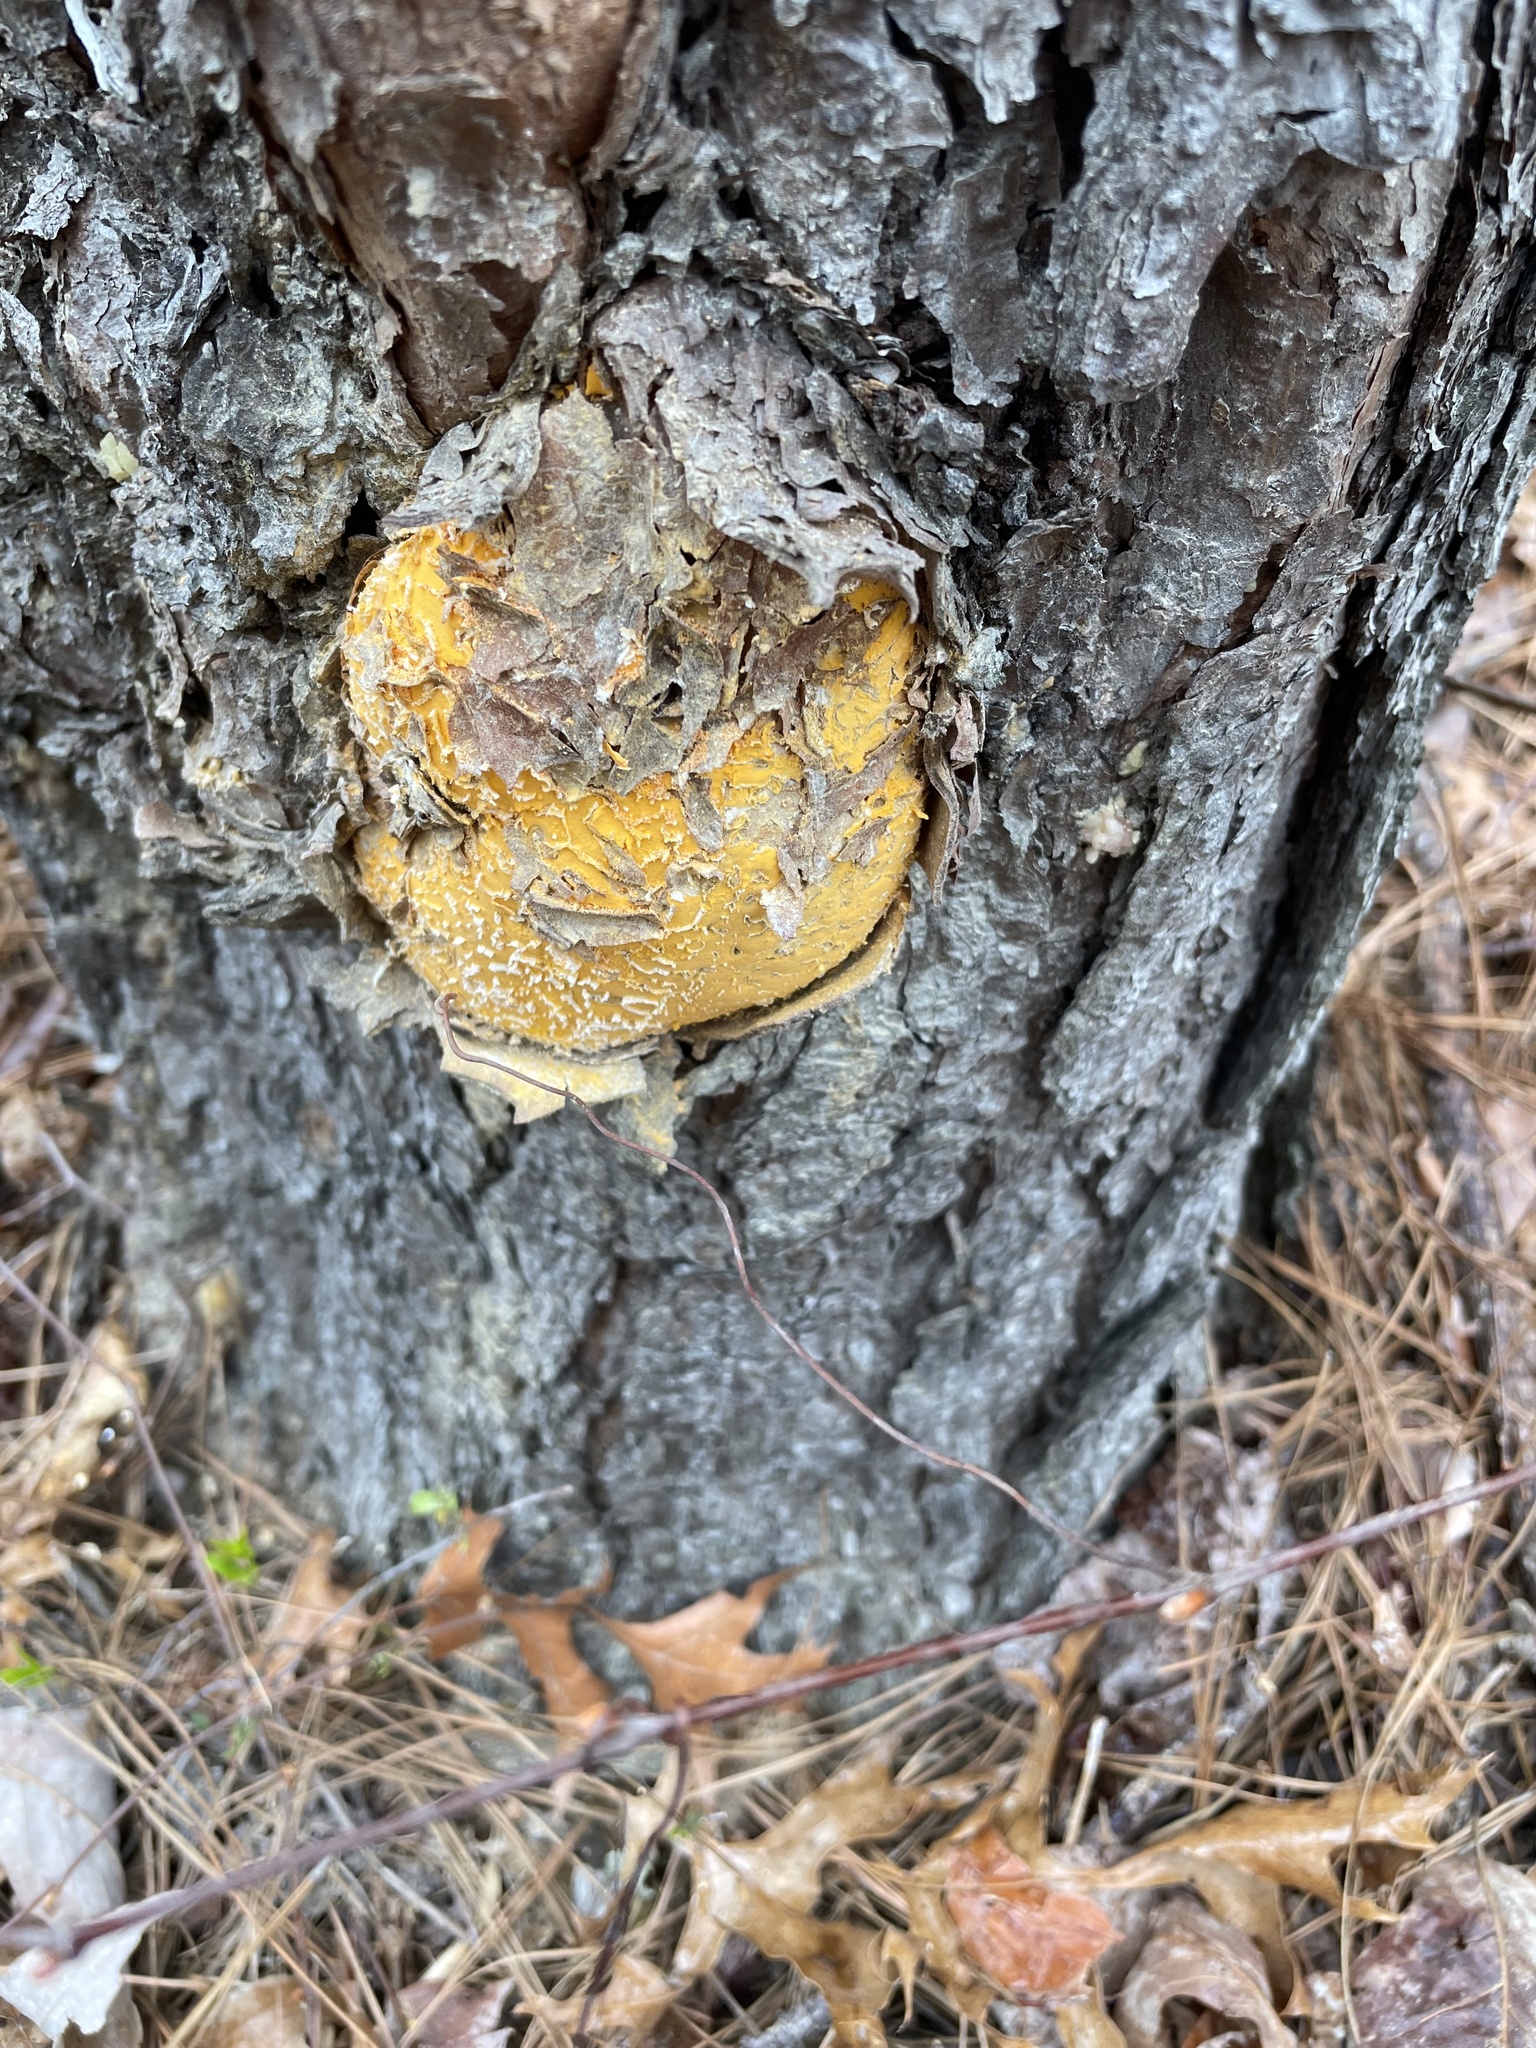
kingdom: Fungi
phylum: Basidiomycota
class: Pucciniomycetes
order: Pucciniales
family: Cronartiaceae
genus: Cronartium
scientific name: Cronartium quercuum
